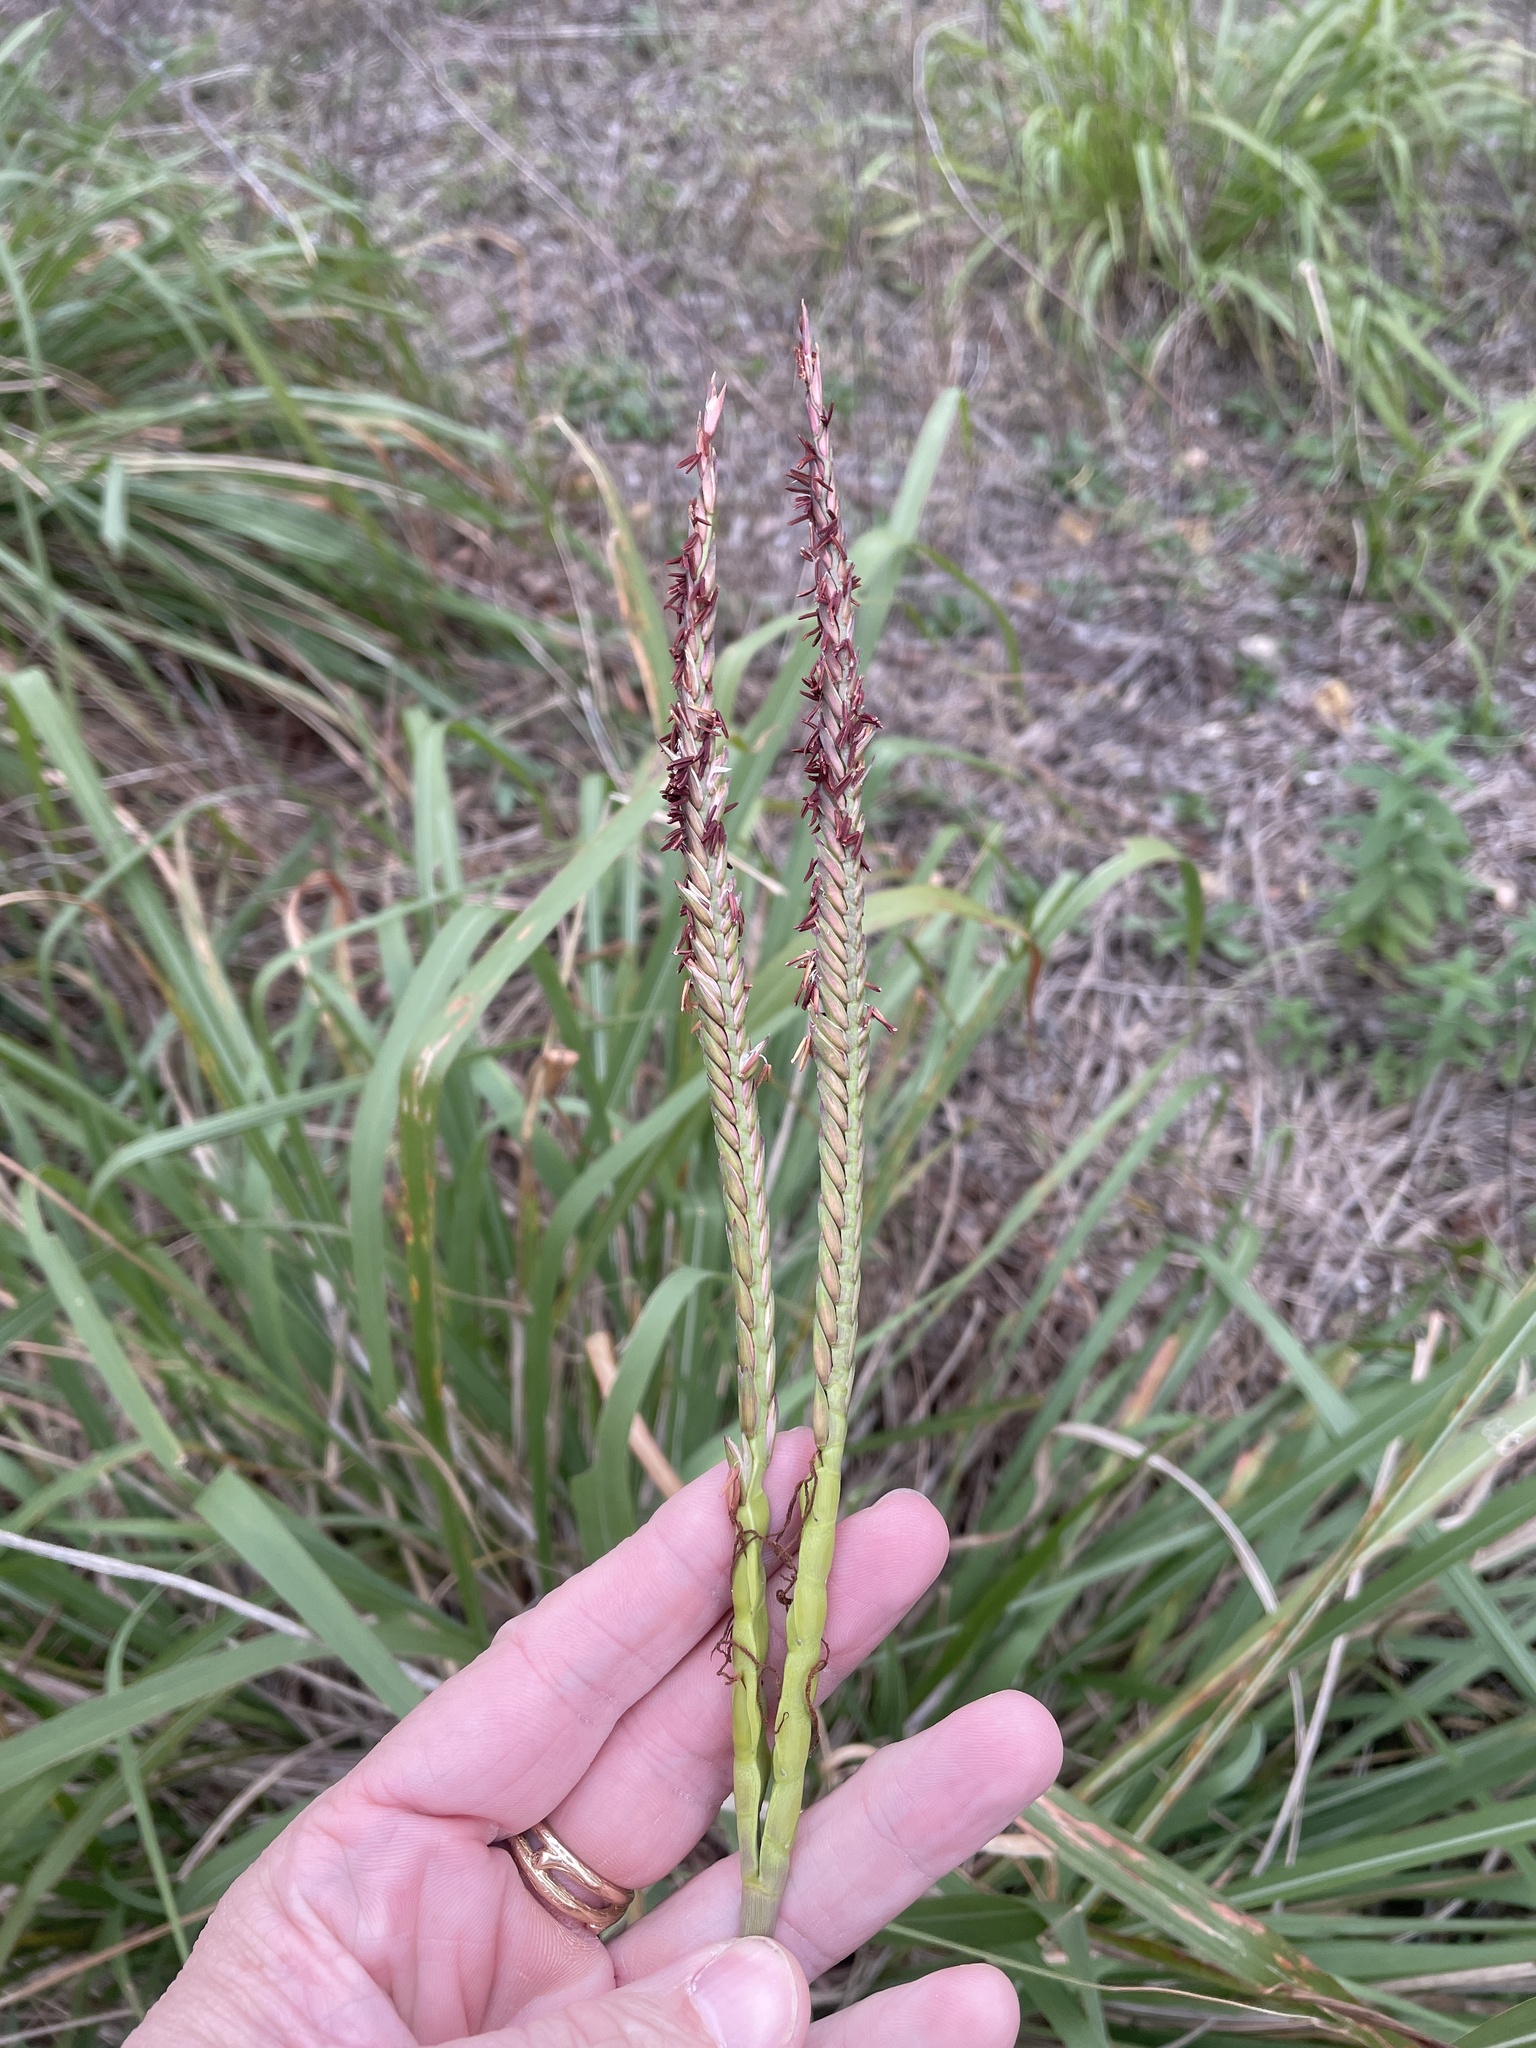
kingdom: Plantae
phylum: Tracheophyta
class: Liliopsida
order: Poales
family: Poaceae
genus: Tripsacum
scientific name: Tripsacum dactyloides
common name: Buffalo-grass
